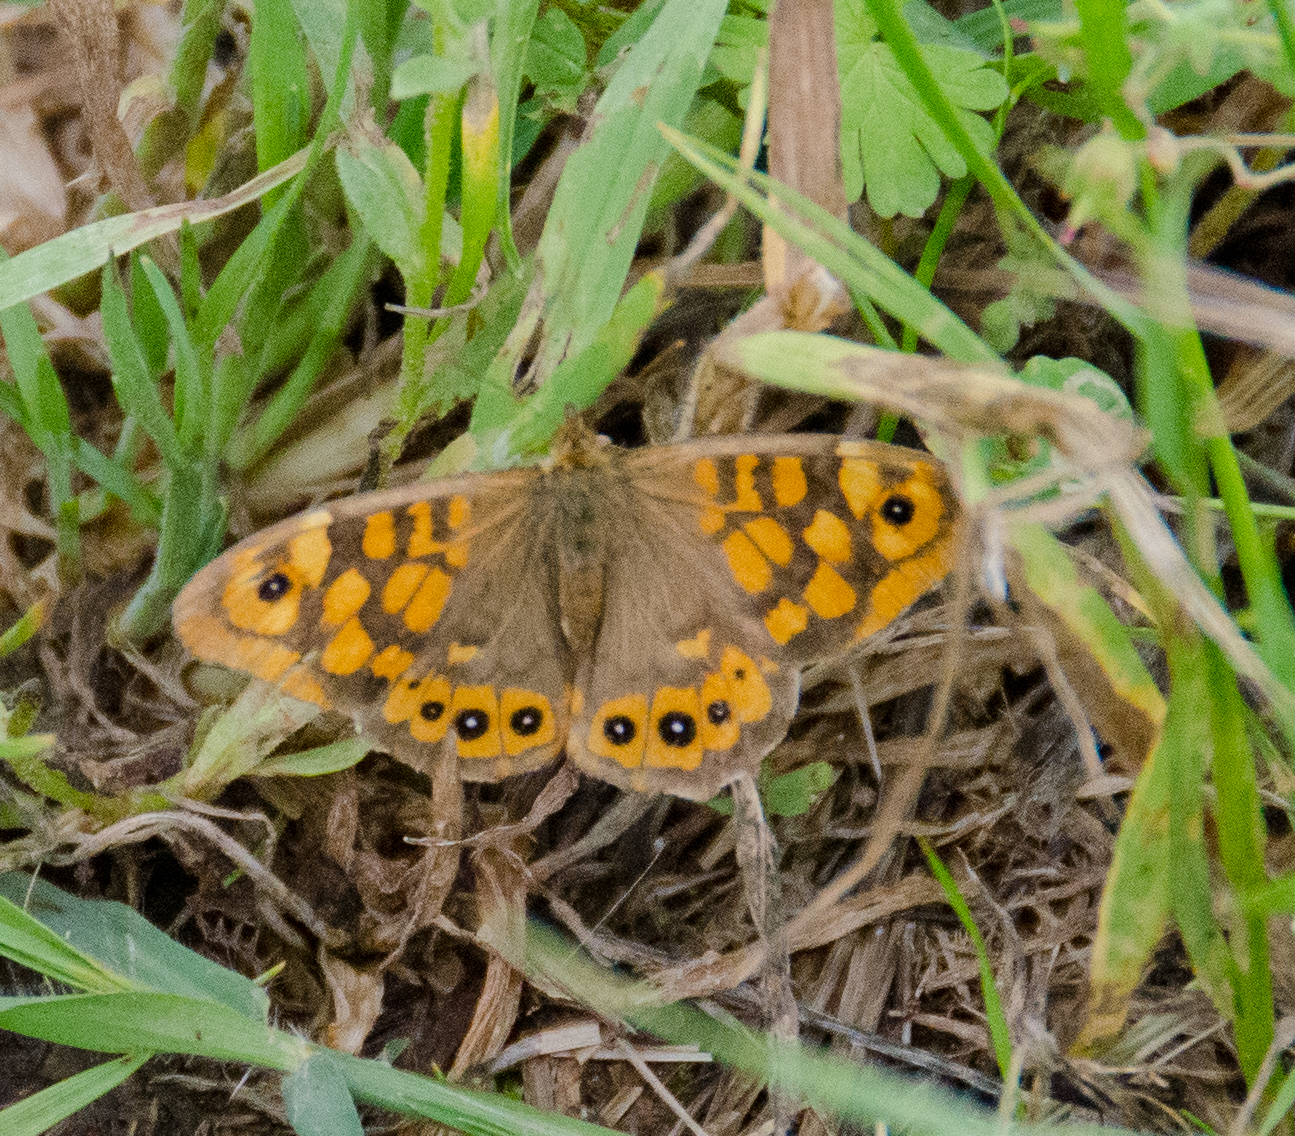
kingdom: Animalia
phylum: Arthropoda
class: Insecta
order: Lepidoptera
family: Nymphalidae
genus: Pararge
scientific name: Pararge aegeria
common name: Speckled wood
